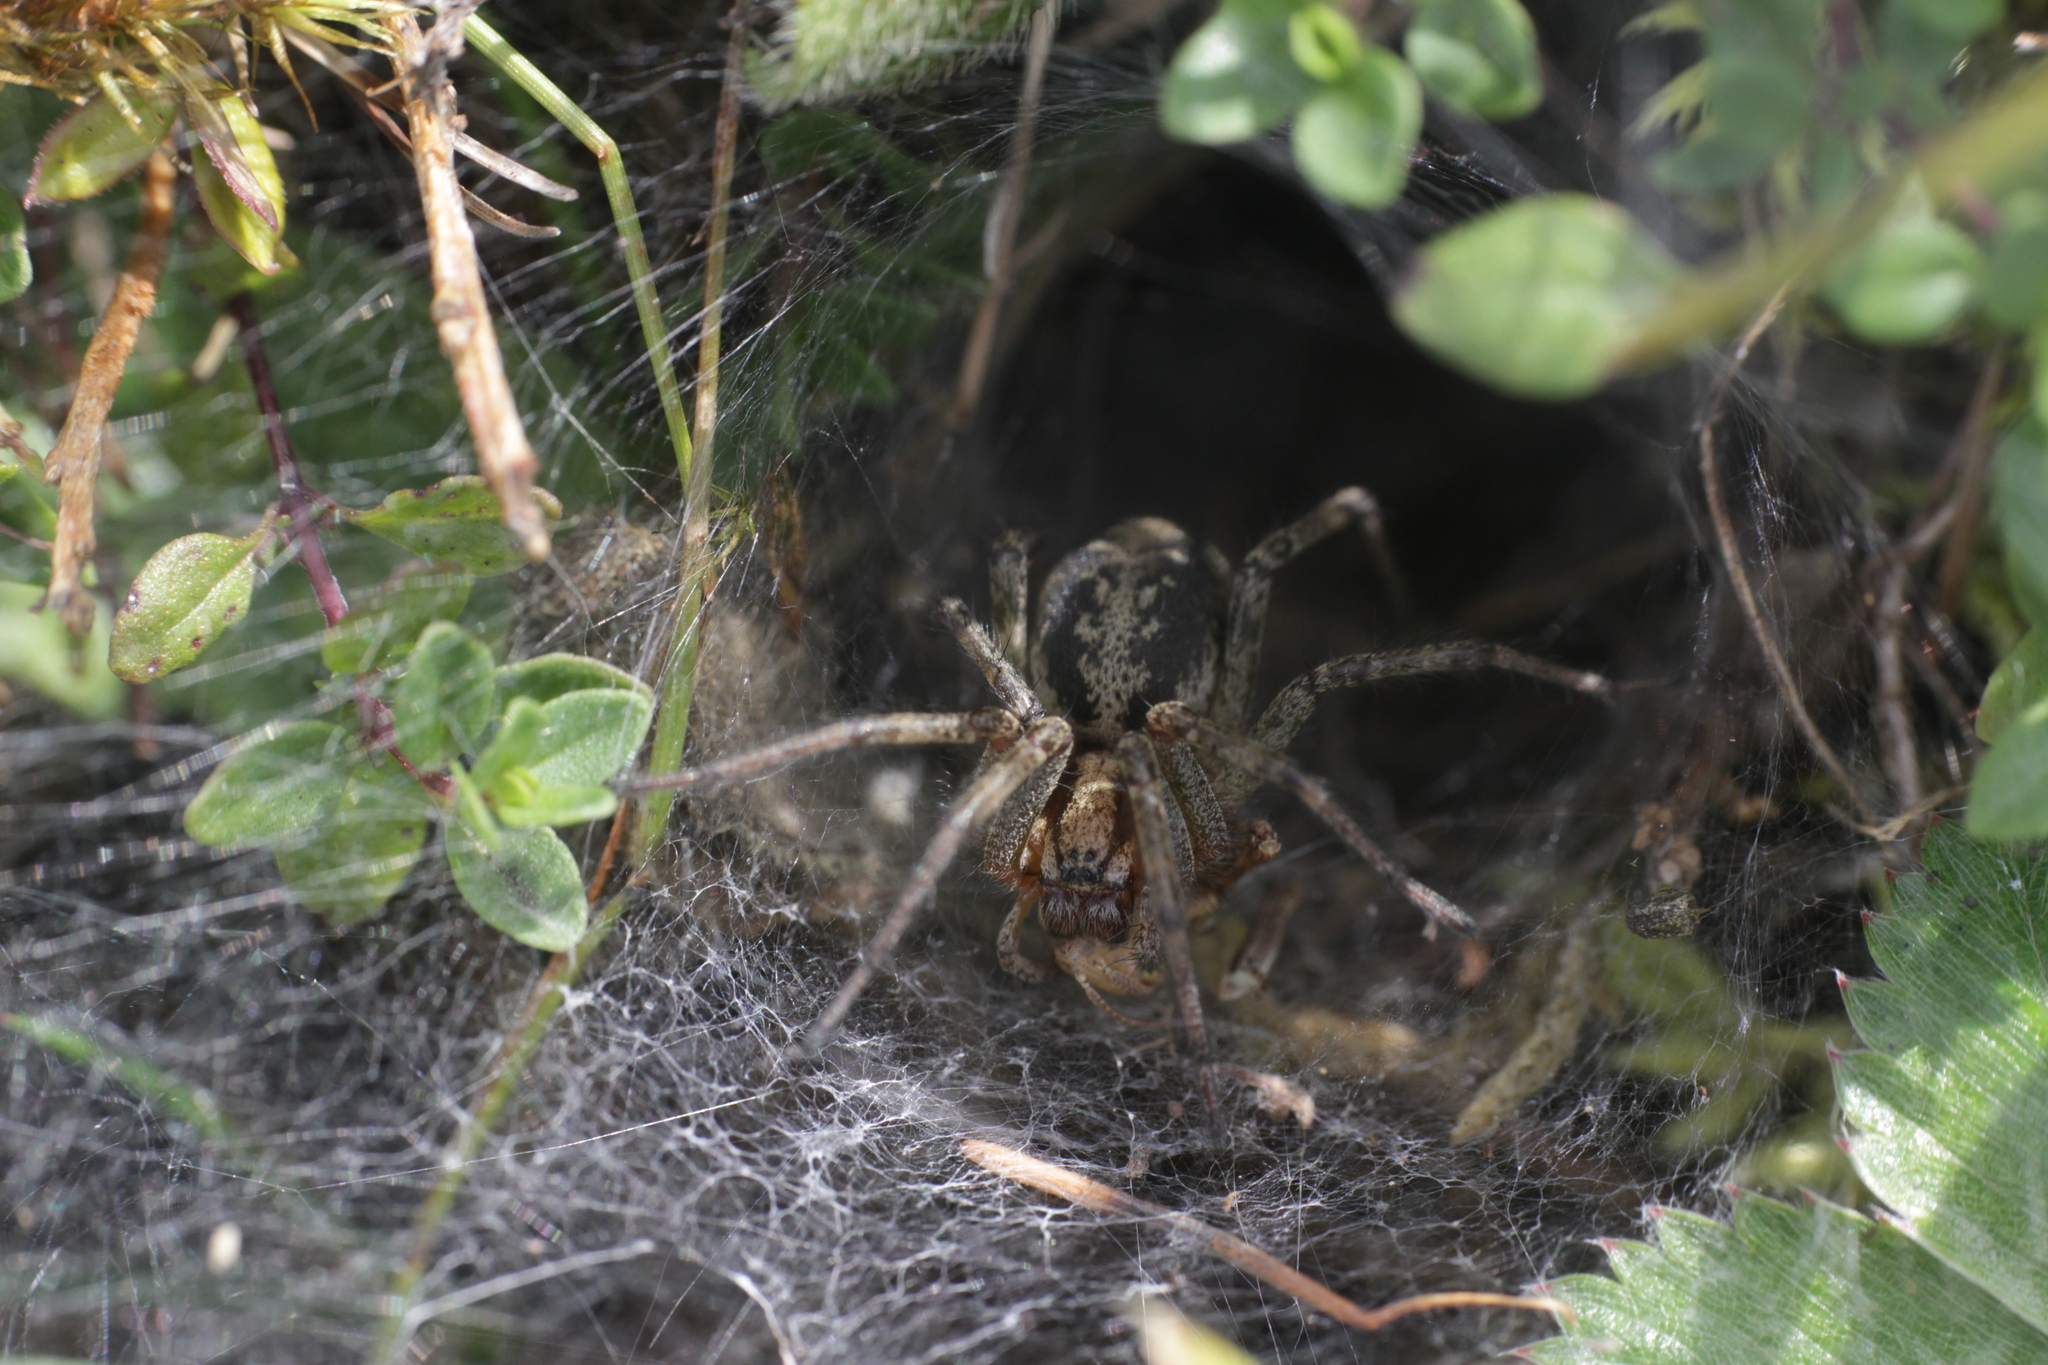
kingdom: Animalia
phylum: Arthropoda
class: Arachnida
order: Araneae
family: Agelenidae
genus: Agelena
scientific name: Agelena labyrinthica
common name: Labyrinth spider
